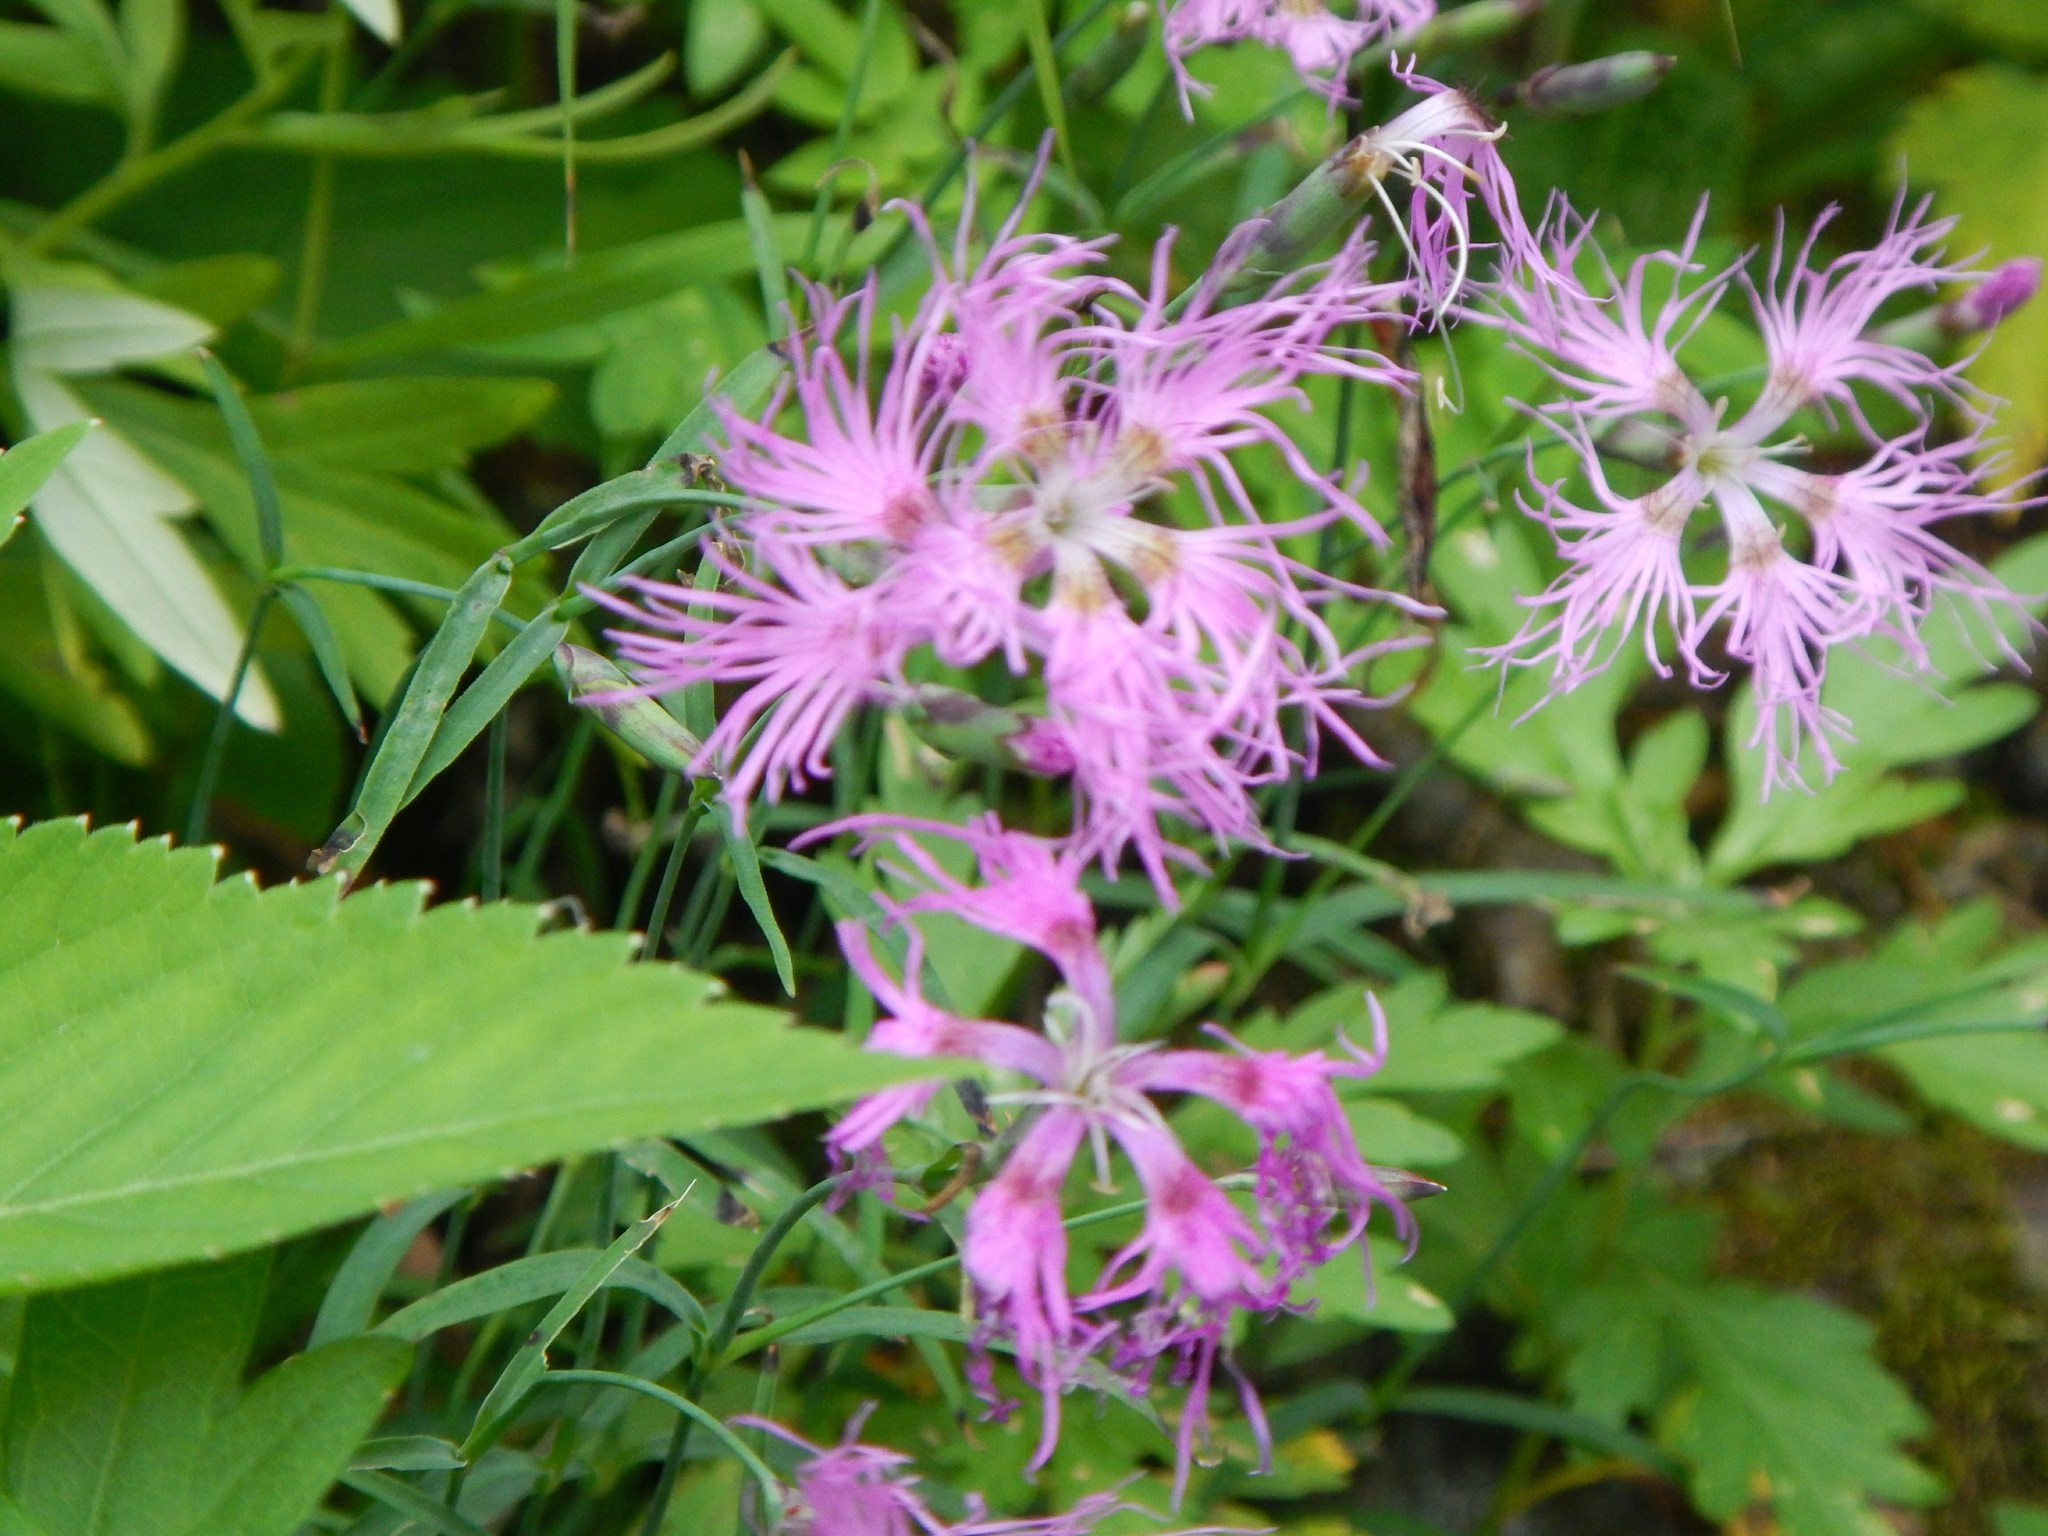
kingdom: Plantae
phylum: Tracheophyta
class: Magnoliopsida
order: Caryophyllales
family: Caryophyllaceae
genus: Dianthus
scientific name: Dianthus superbus
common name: Fringed pink
